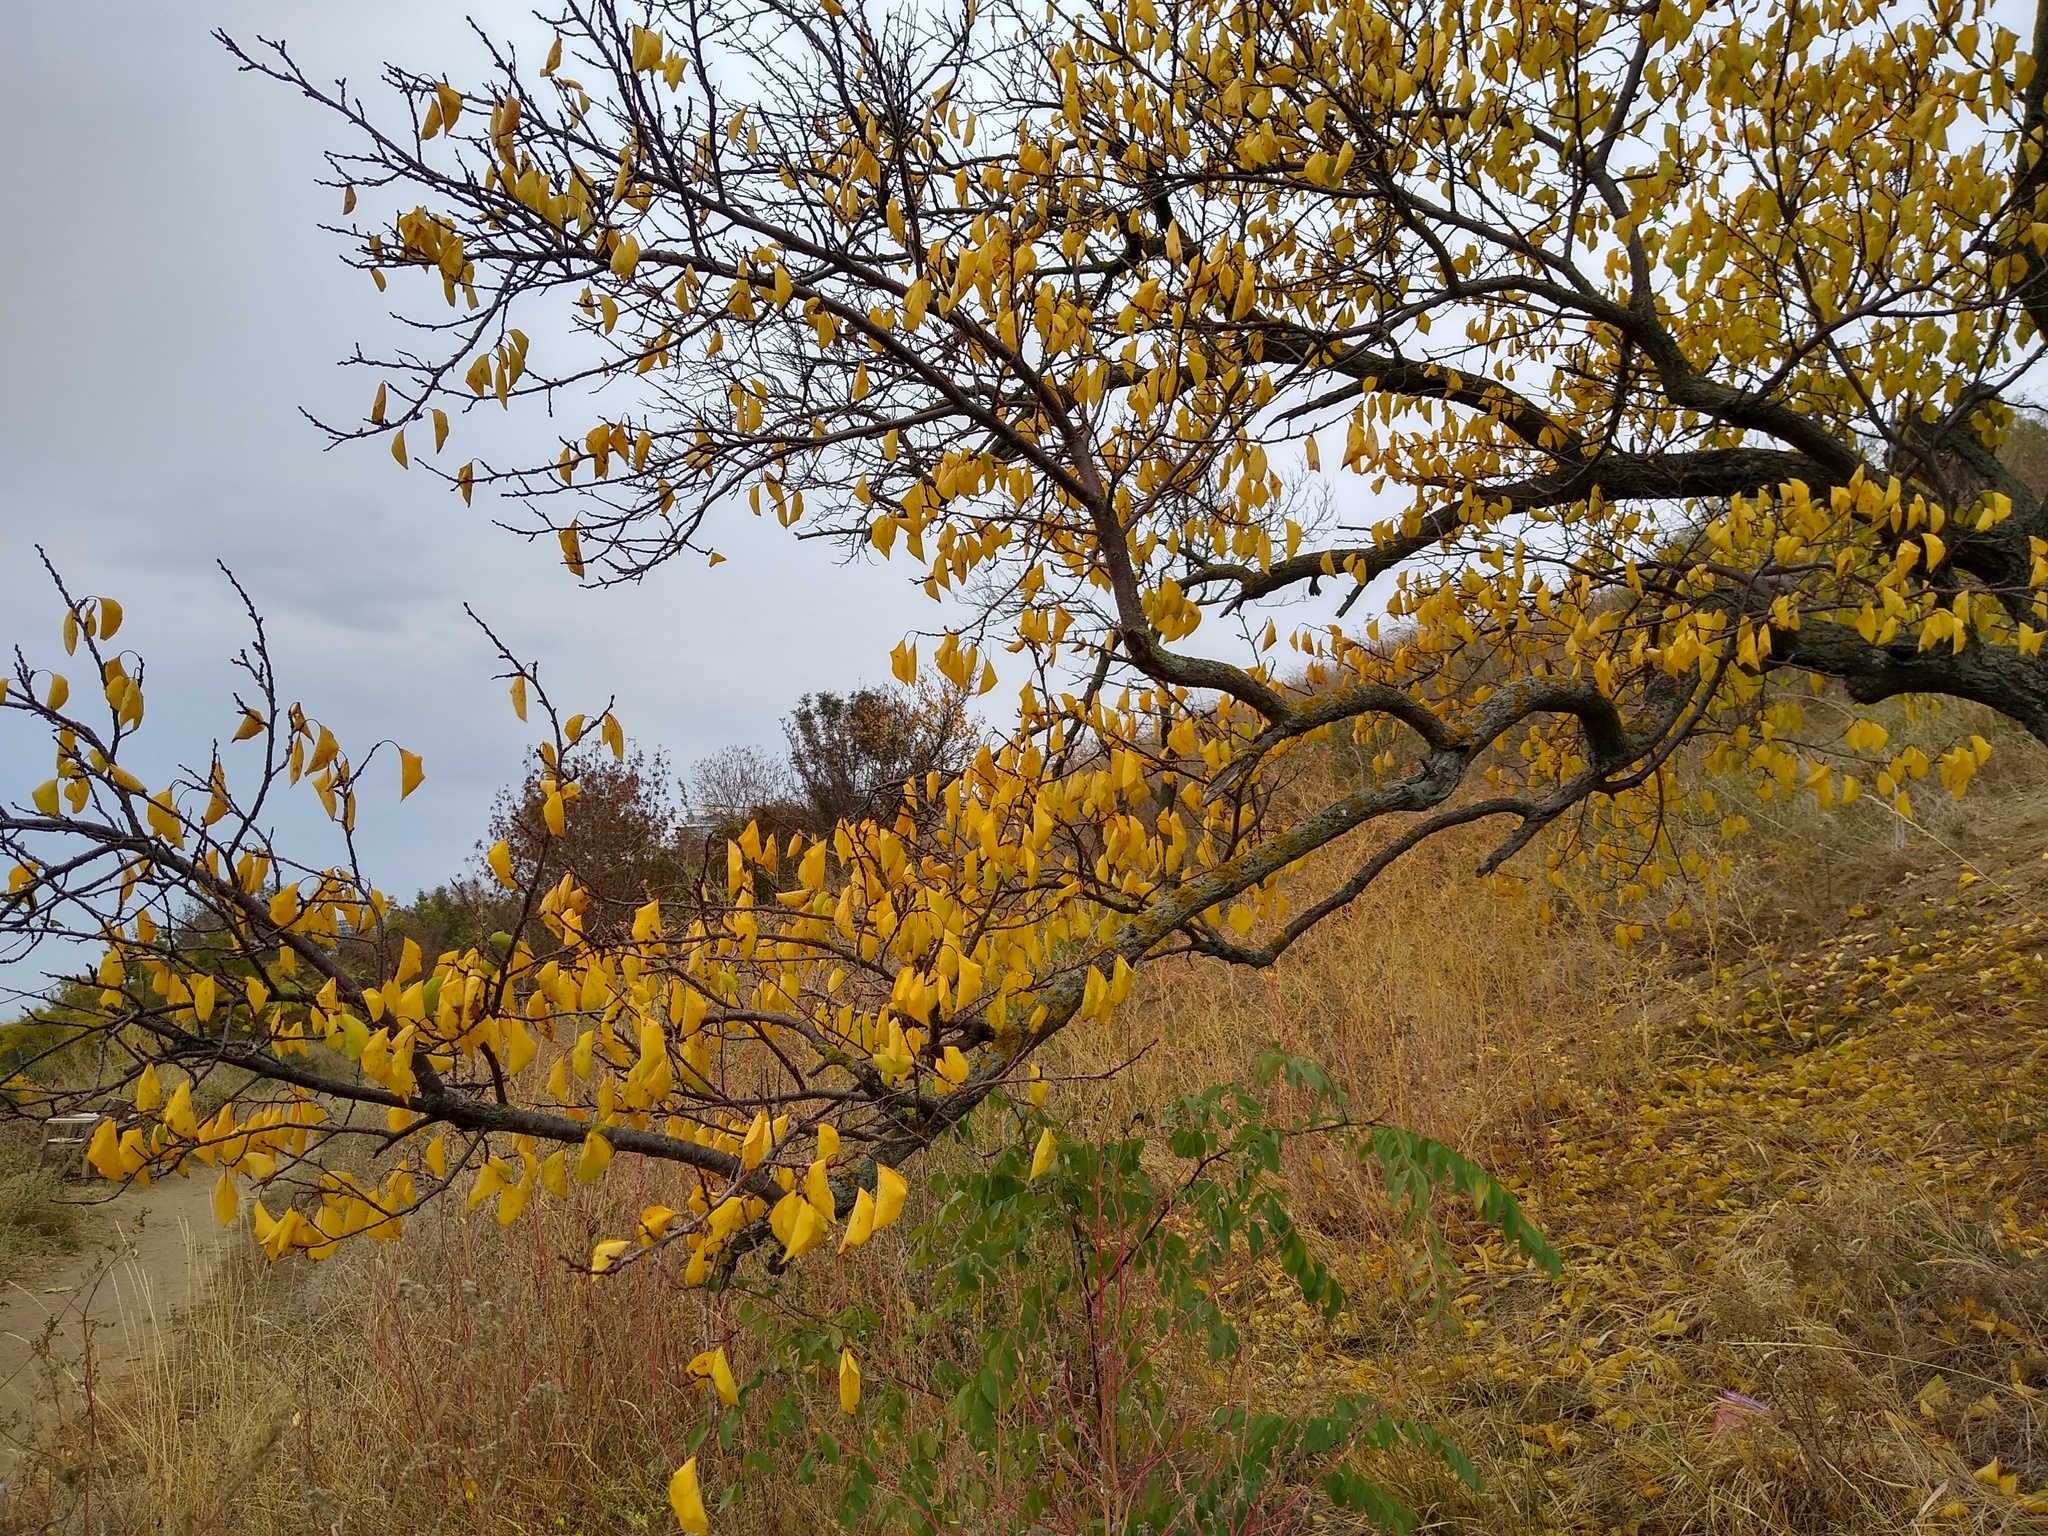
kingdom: Plantae
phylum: Tracheophyta
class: Magnoliopsida
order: Rosales
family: Rosaceae
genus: Prunus
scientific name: Prunus armeniaca
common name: Apricot
